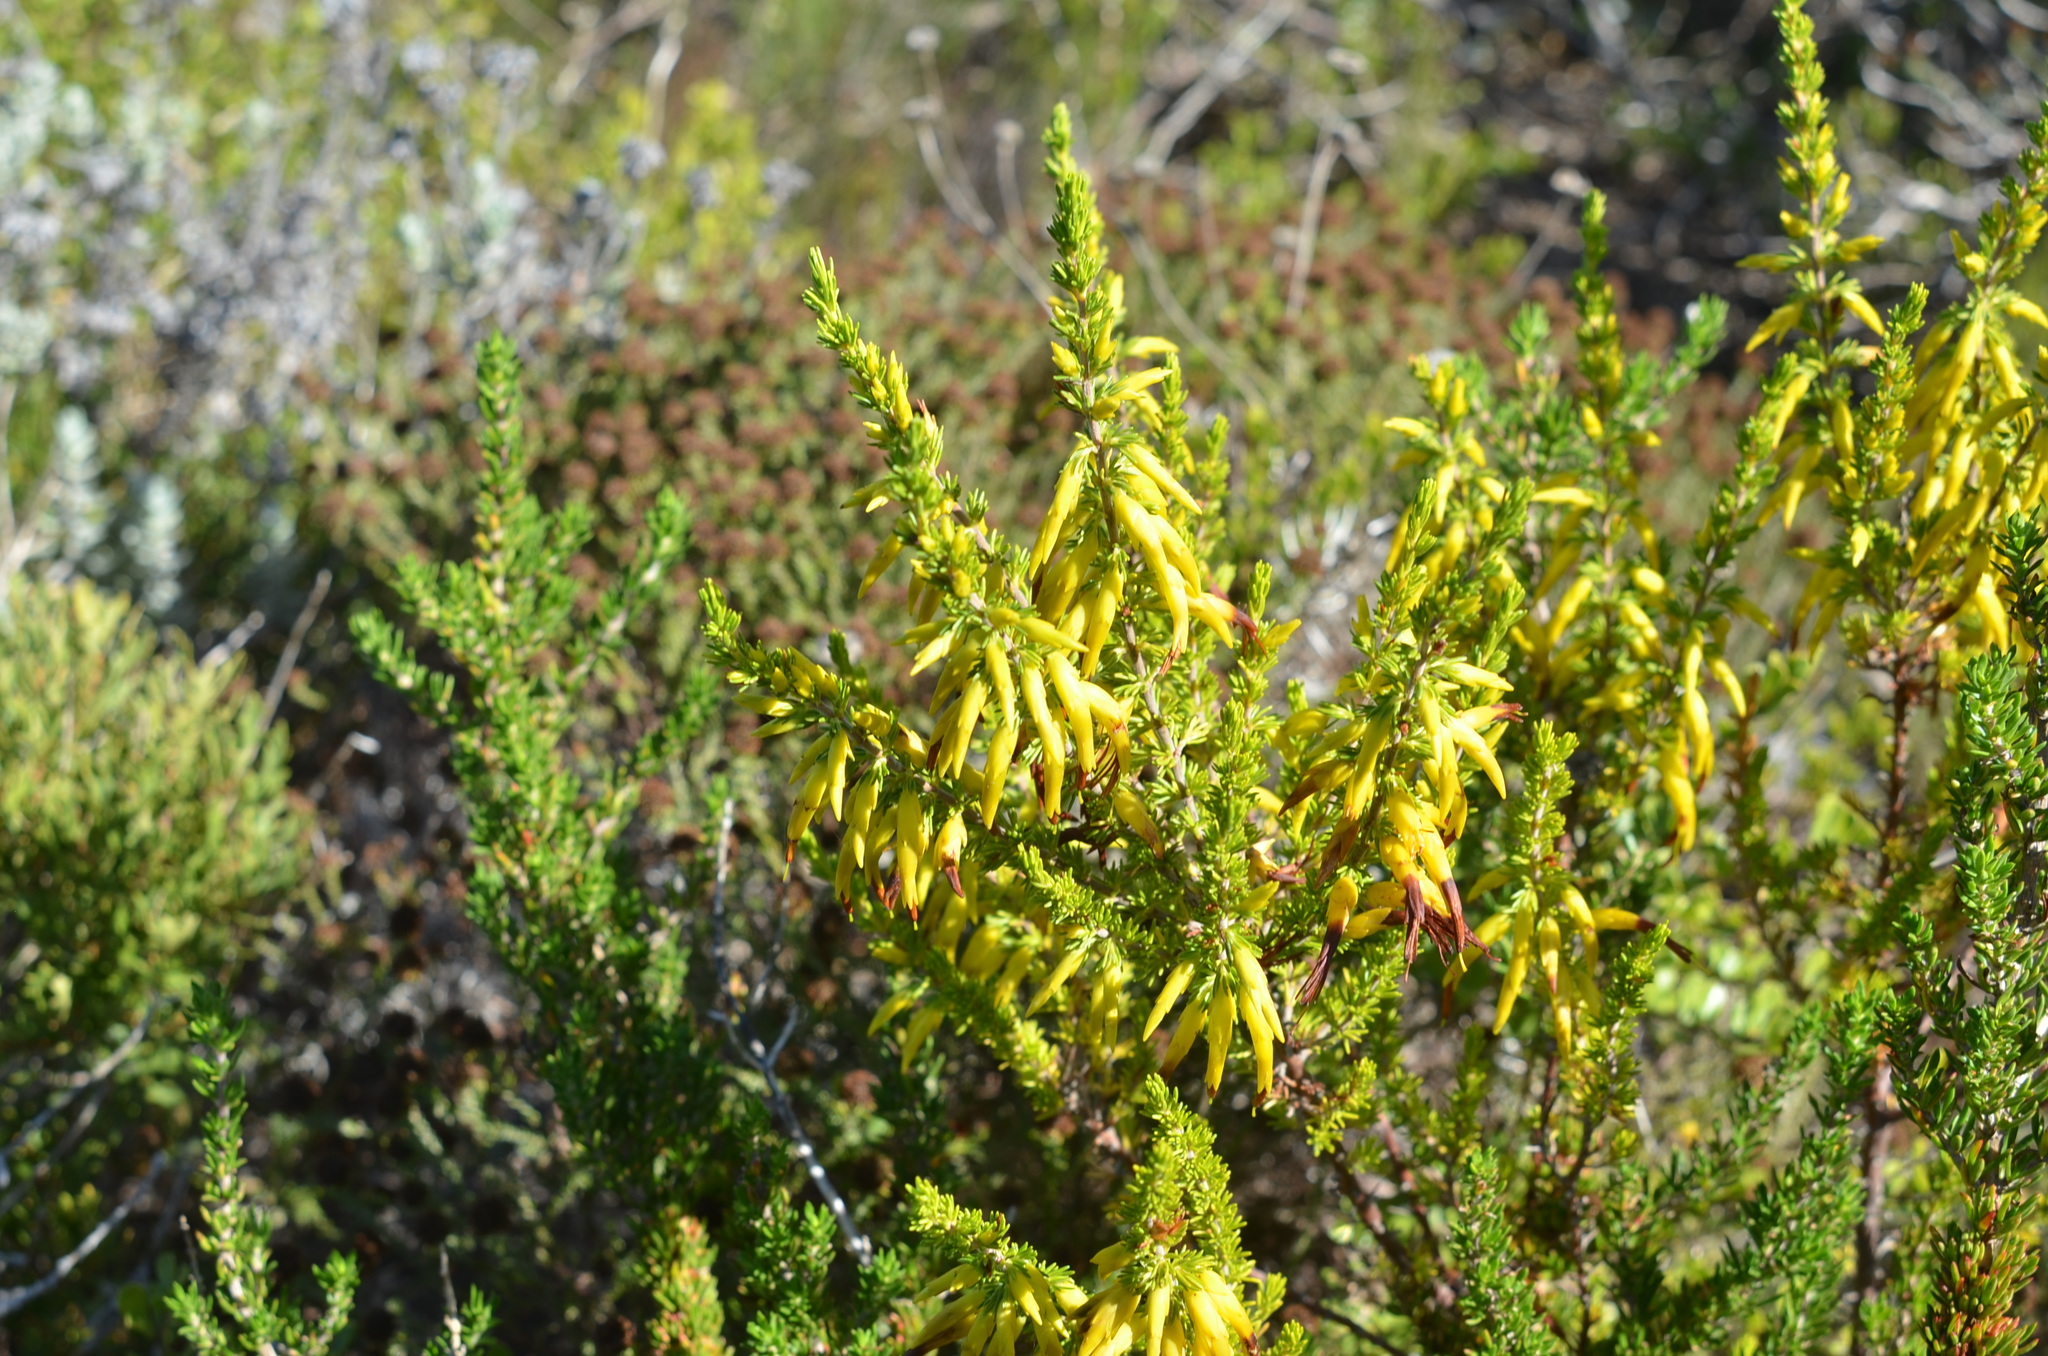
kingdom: Plantae
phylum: Tracheophyta
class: Magnoliopsida
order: Ericales
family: Ericaceae
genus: Erica
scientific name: Erica coccinea
